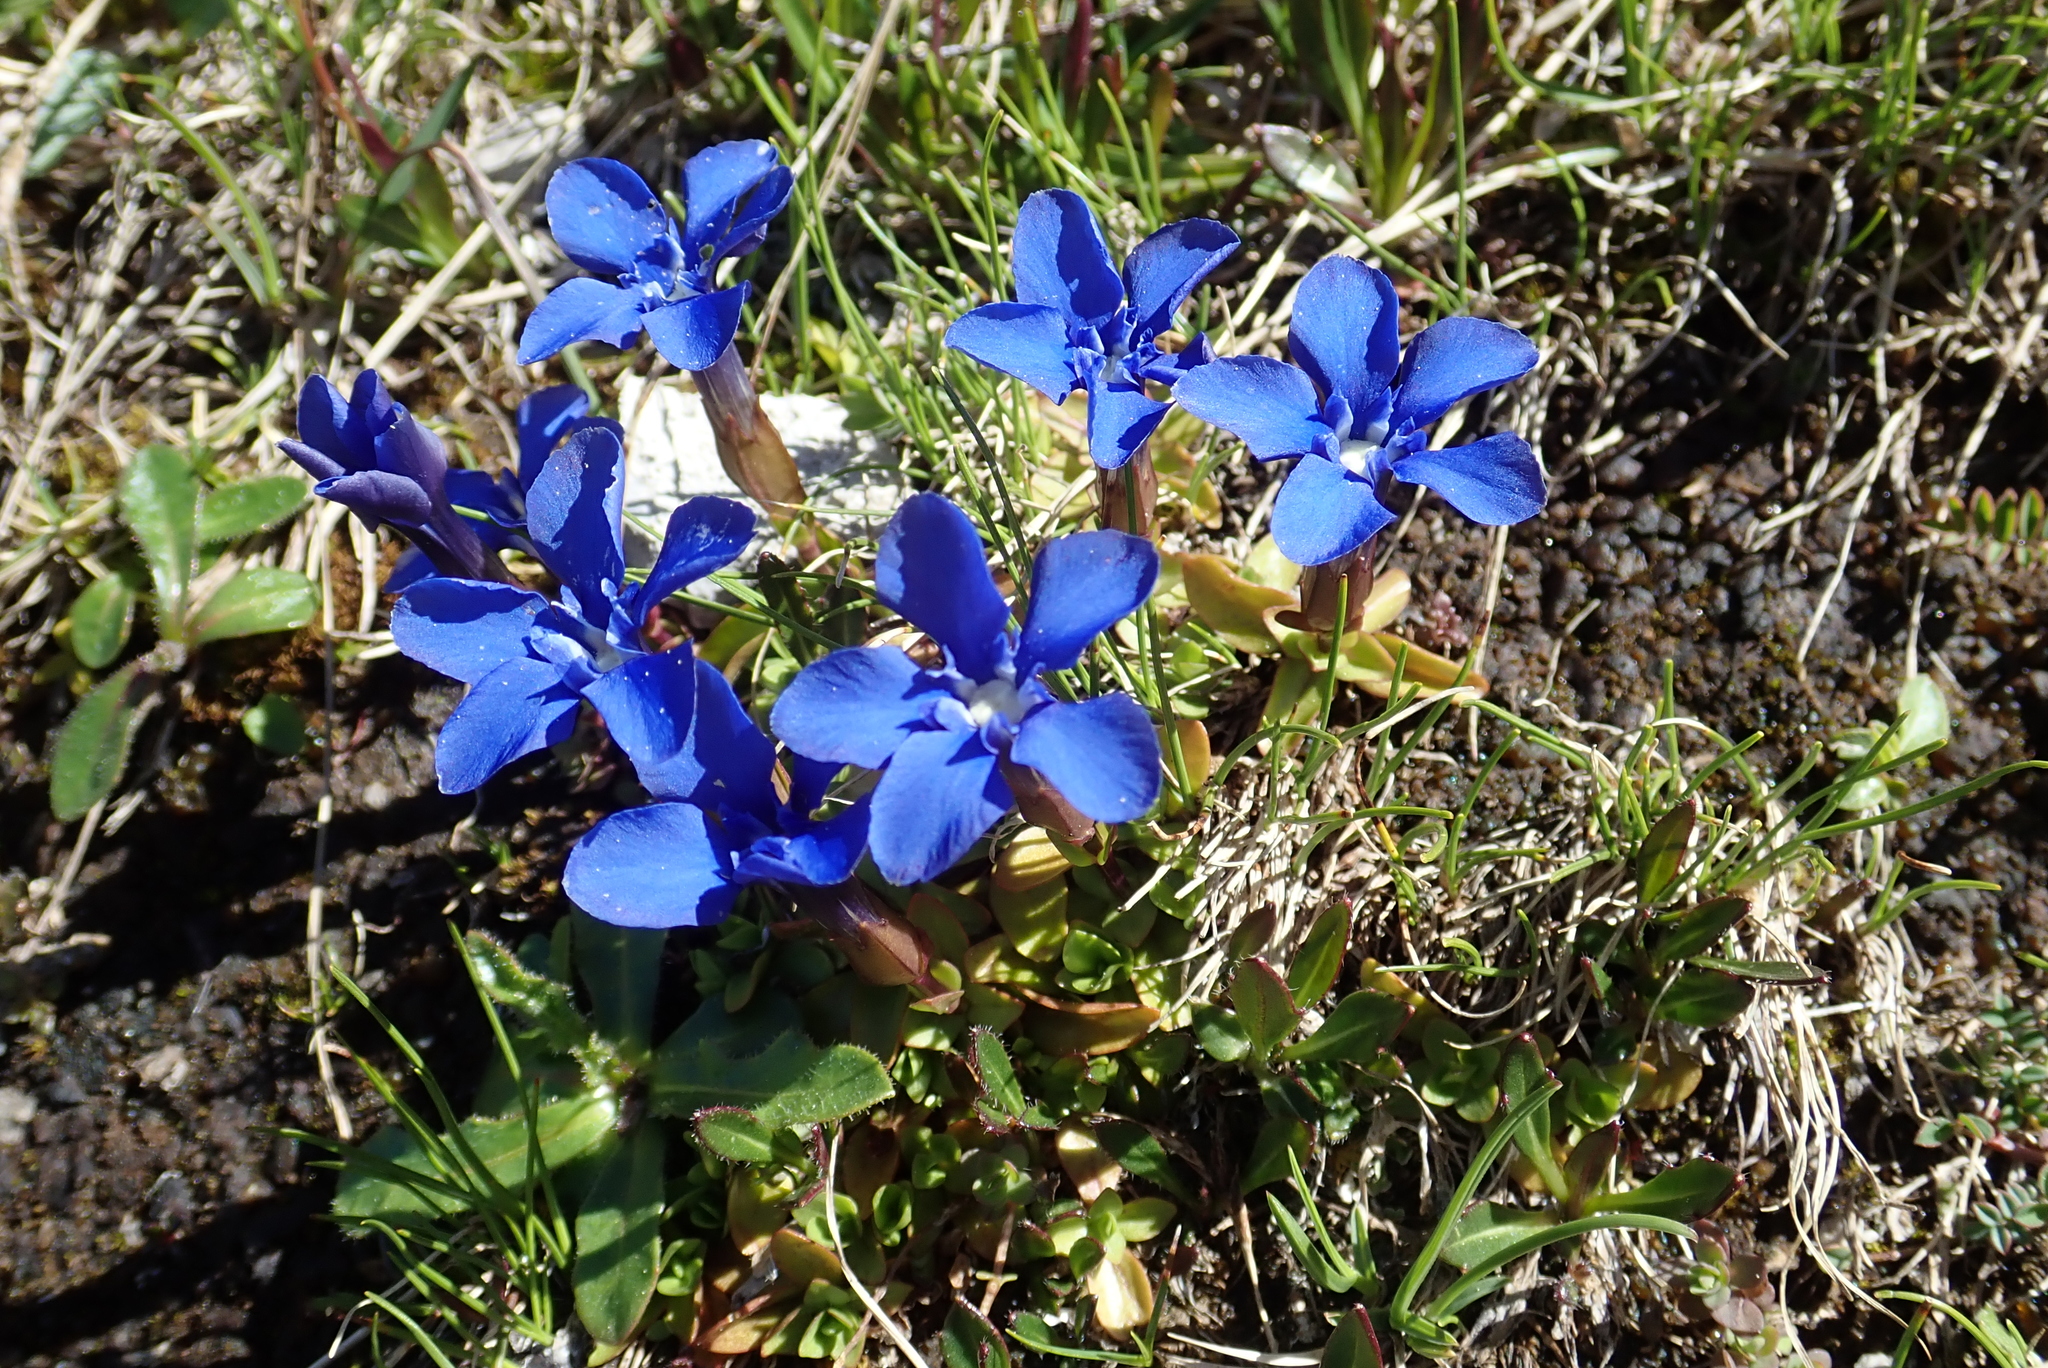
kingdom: Plantae
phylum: Tracheophyta
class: Magnoliopsida
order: Gentianales
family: Gentianaceae
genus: Gentiana
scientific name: Gentiana verna
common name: Spring gentian
